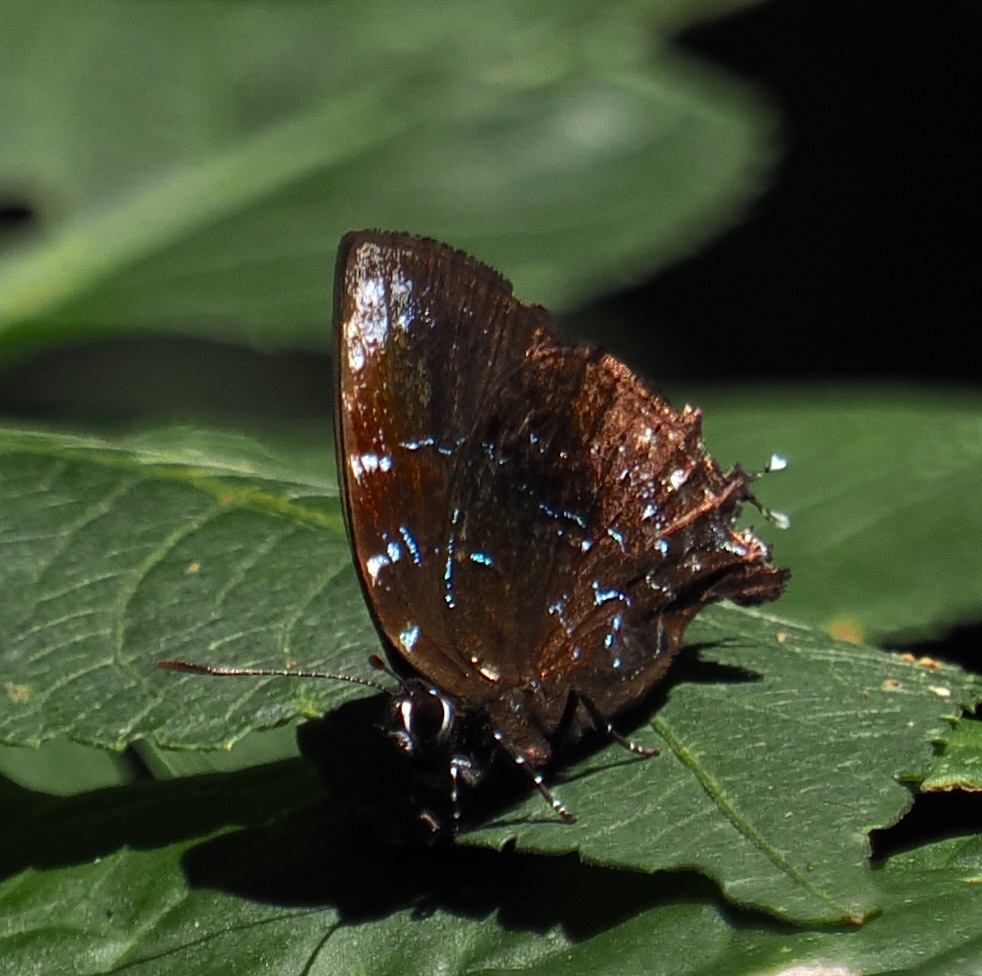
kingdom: Animalia
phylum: Arthropoda
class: Insecta
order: Lepidoptera
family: Lycaenidae
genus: Thecla
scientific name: Thecla thales
